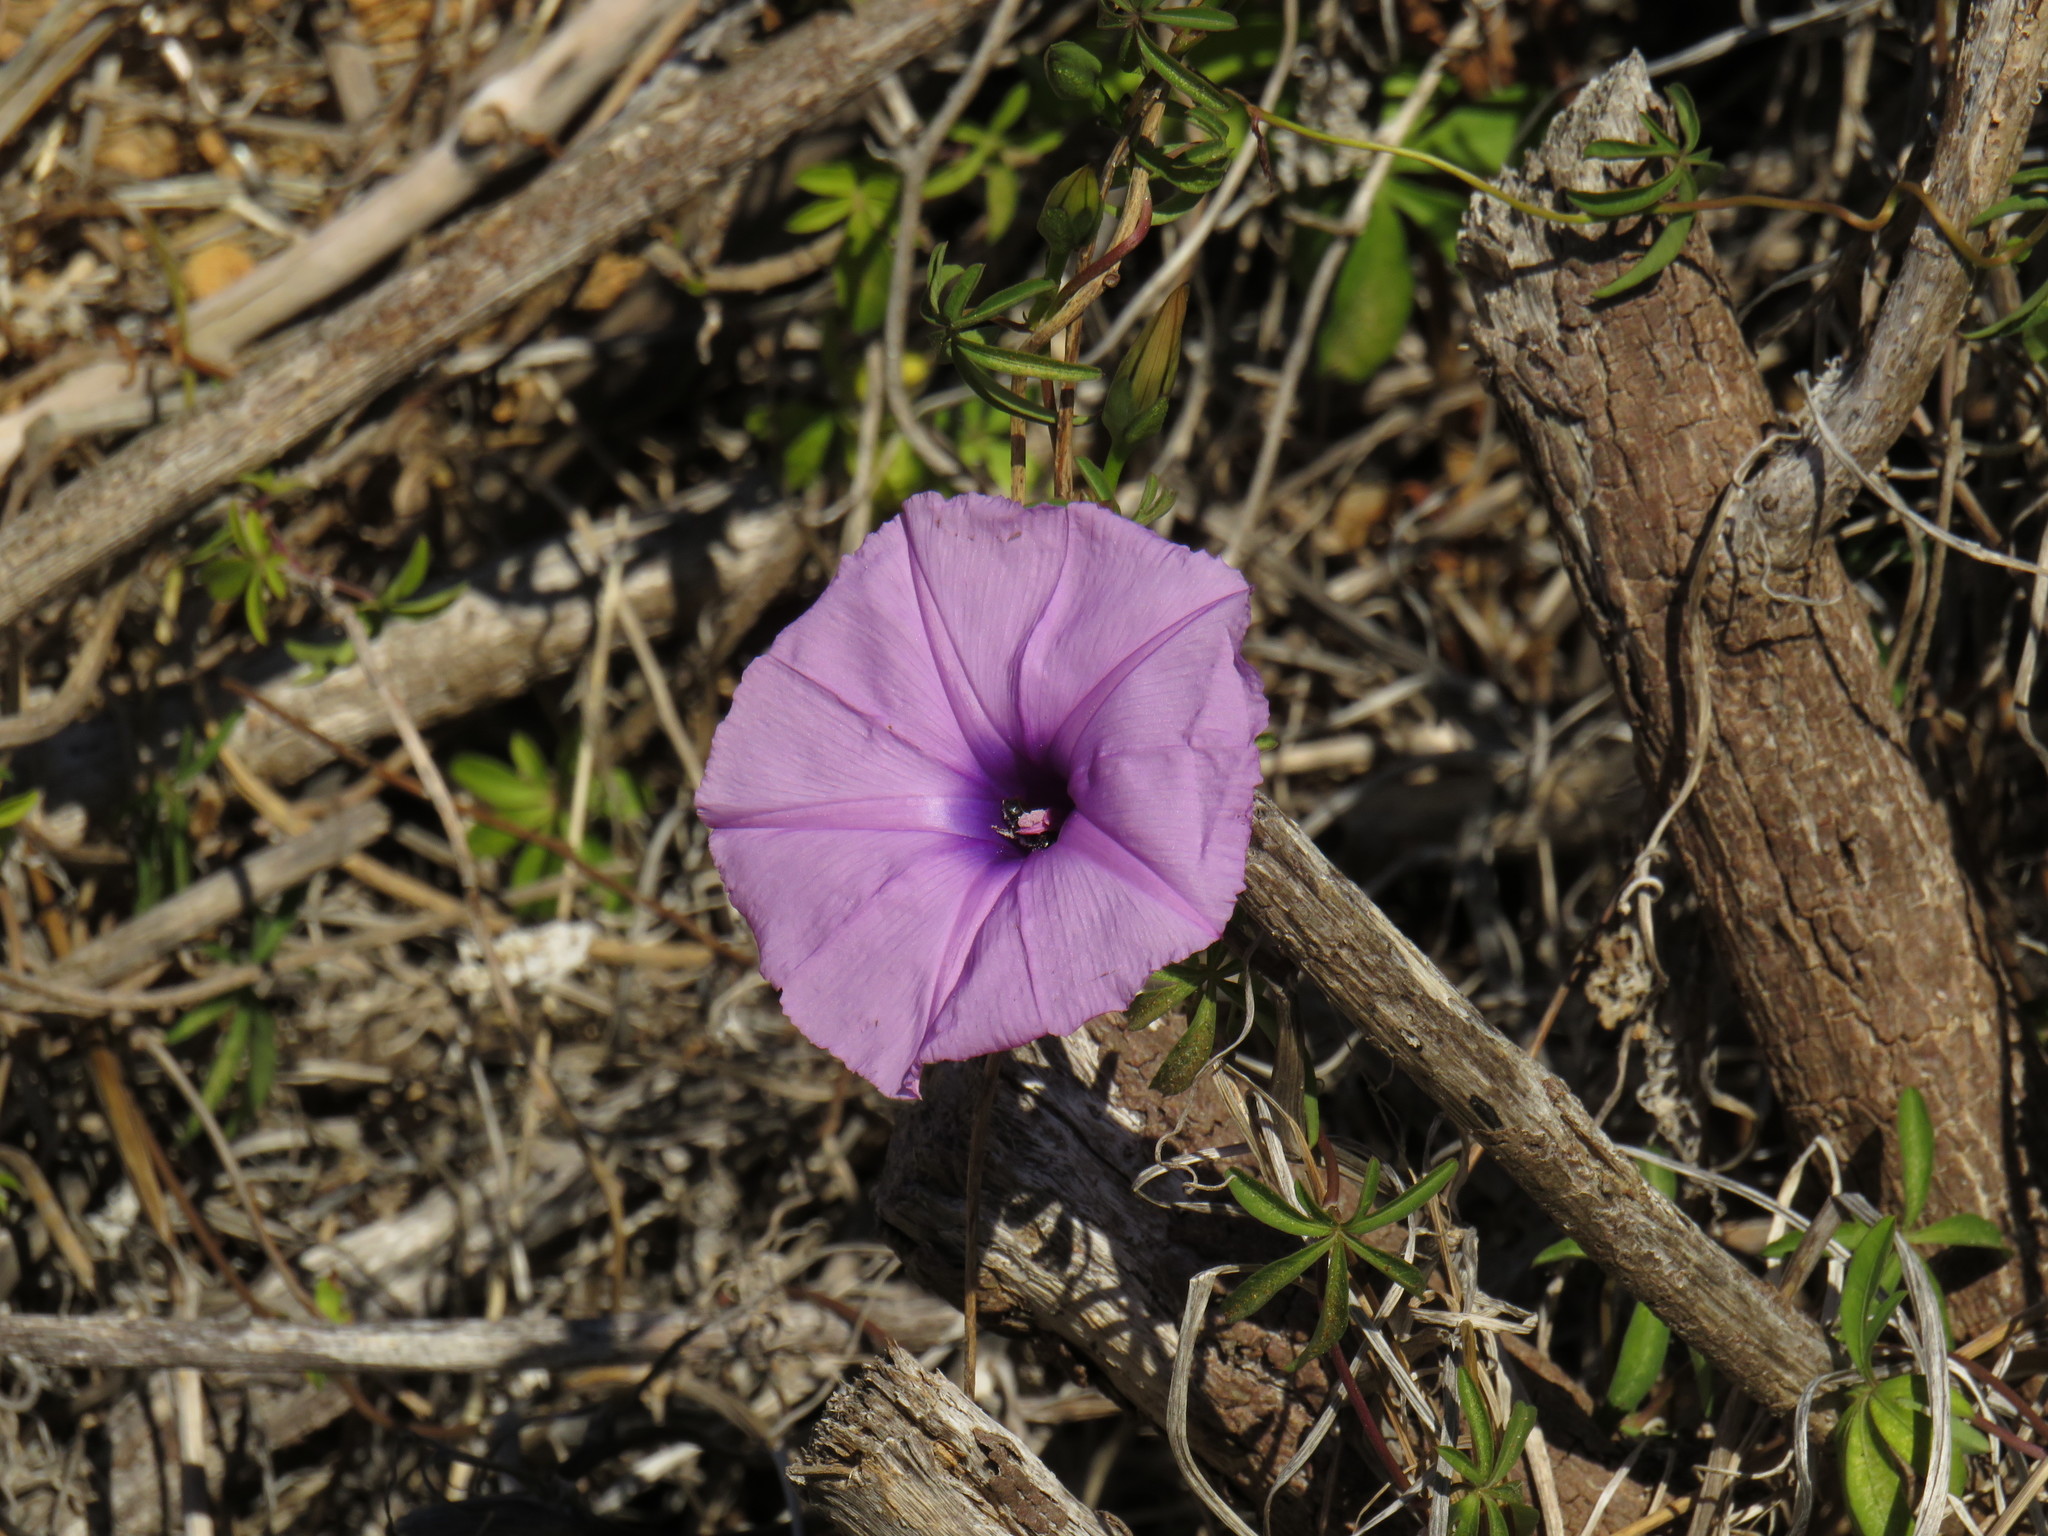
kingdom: Plantae
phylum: Tracheophyta
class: Magnoliopsida
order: Solanales
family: Convolvulaceae
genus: Ipomoea
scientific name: Ipomoea cairica
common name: Mile a minute vine
